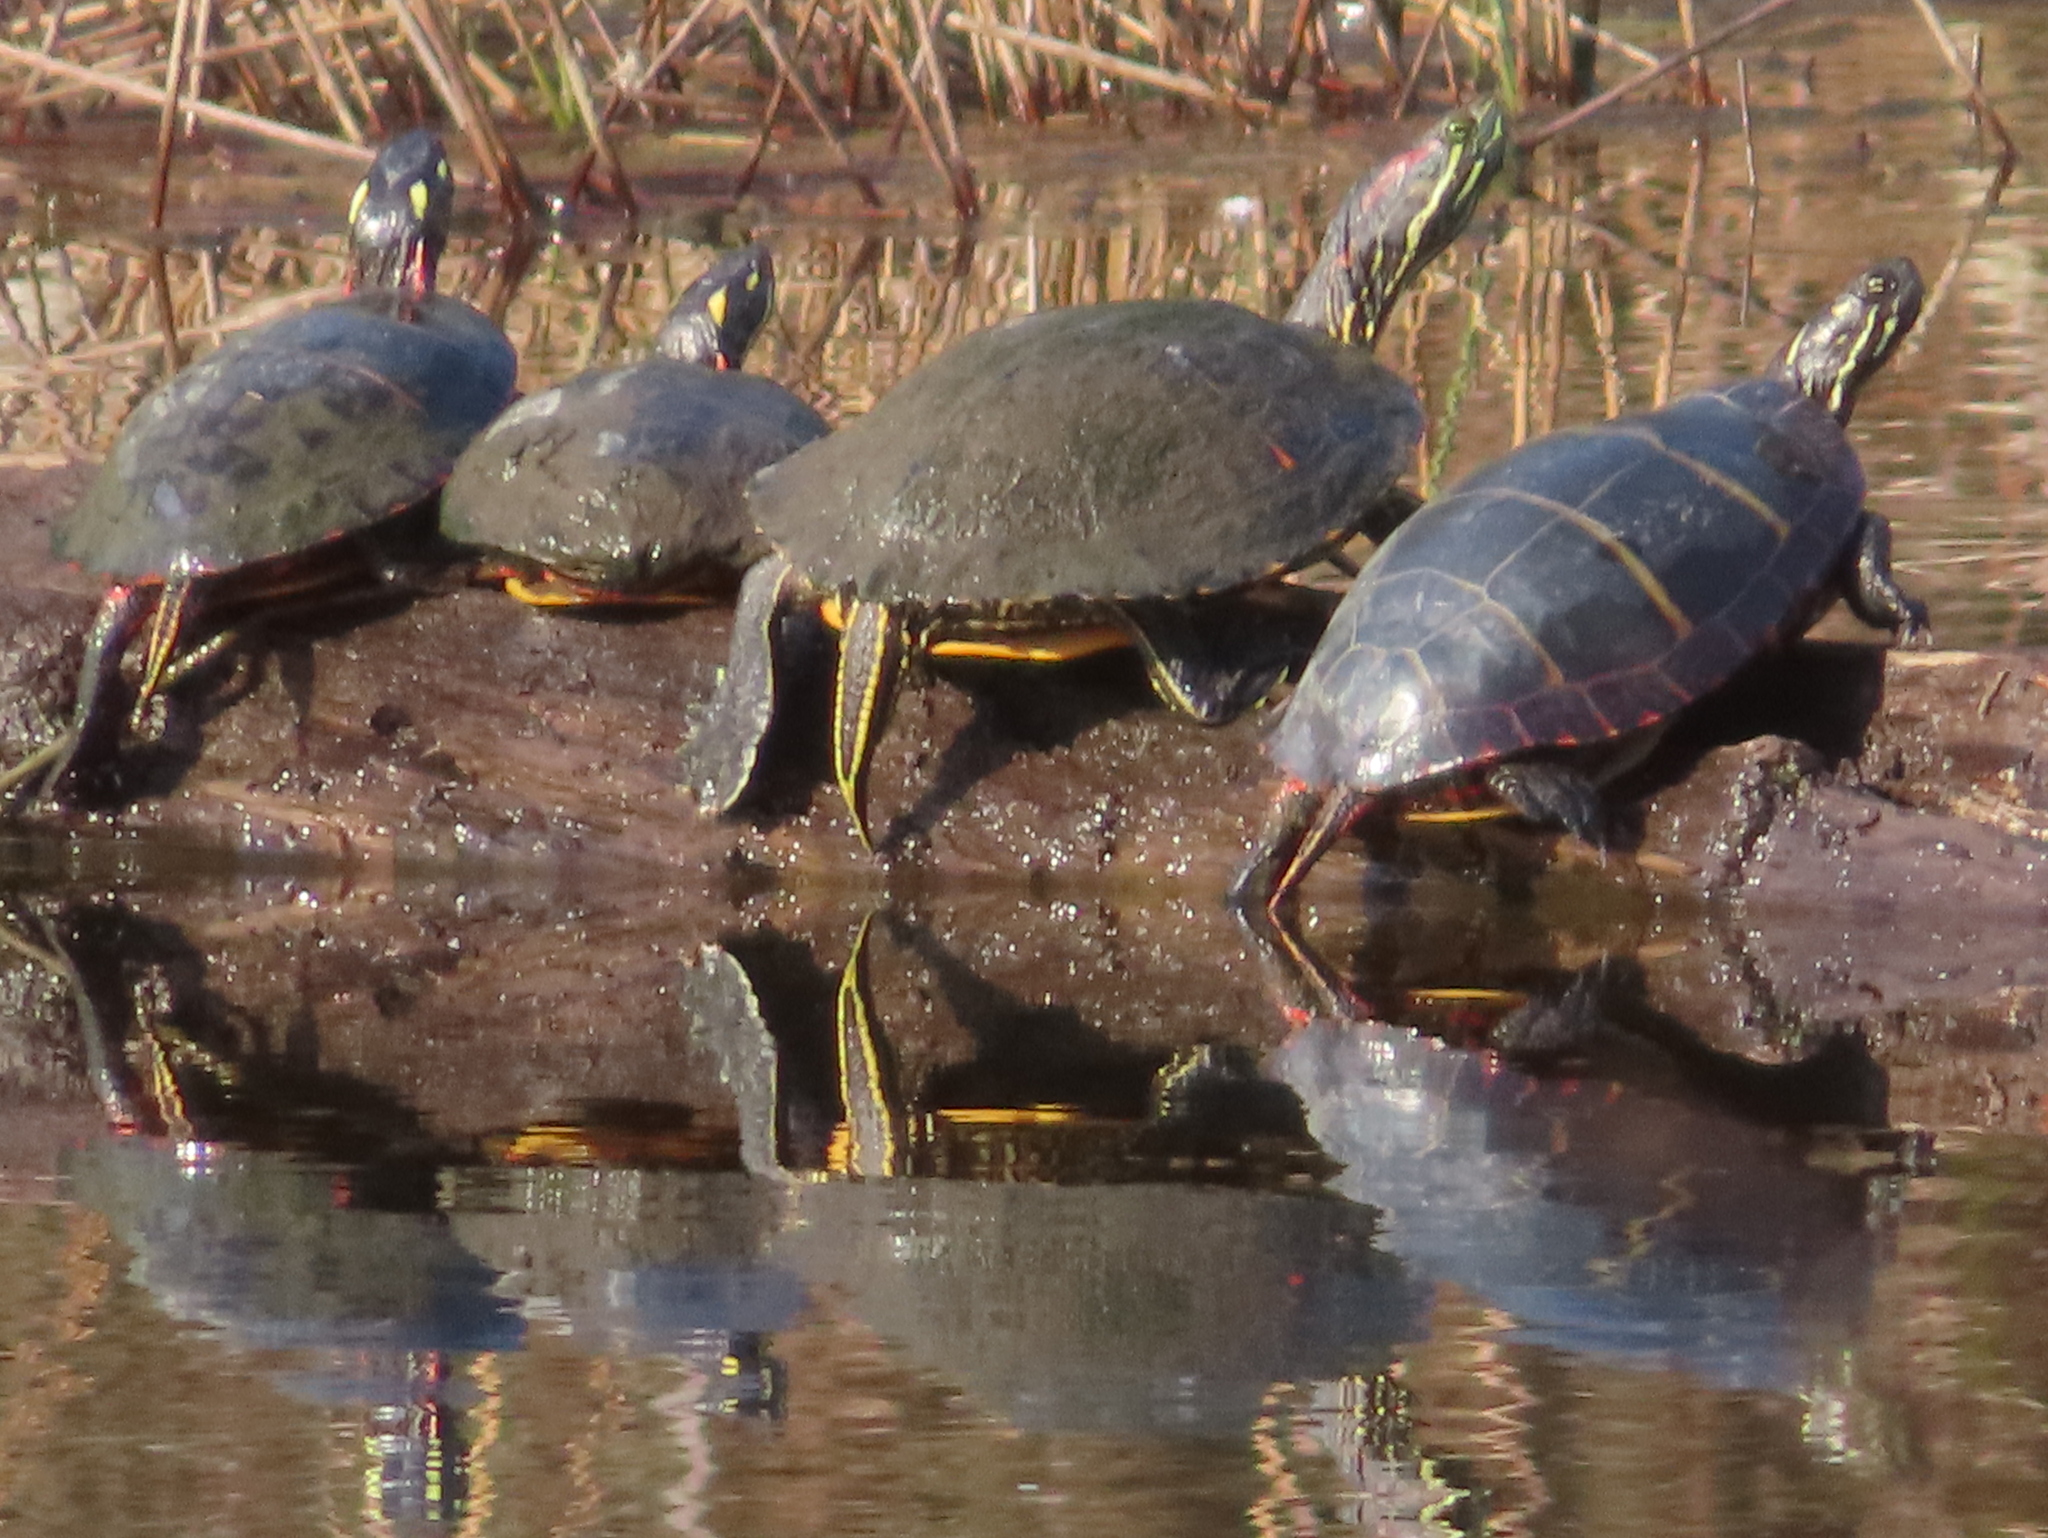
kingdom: Animalia
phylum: Chordata
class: Testudines
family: Emydidae
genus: Chrysemys
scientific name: Chrysemys picta
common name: Painted turtle
